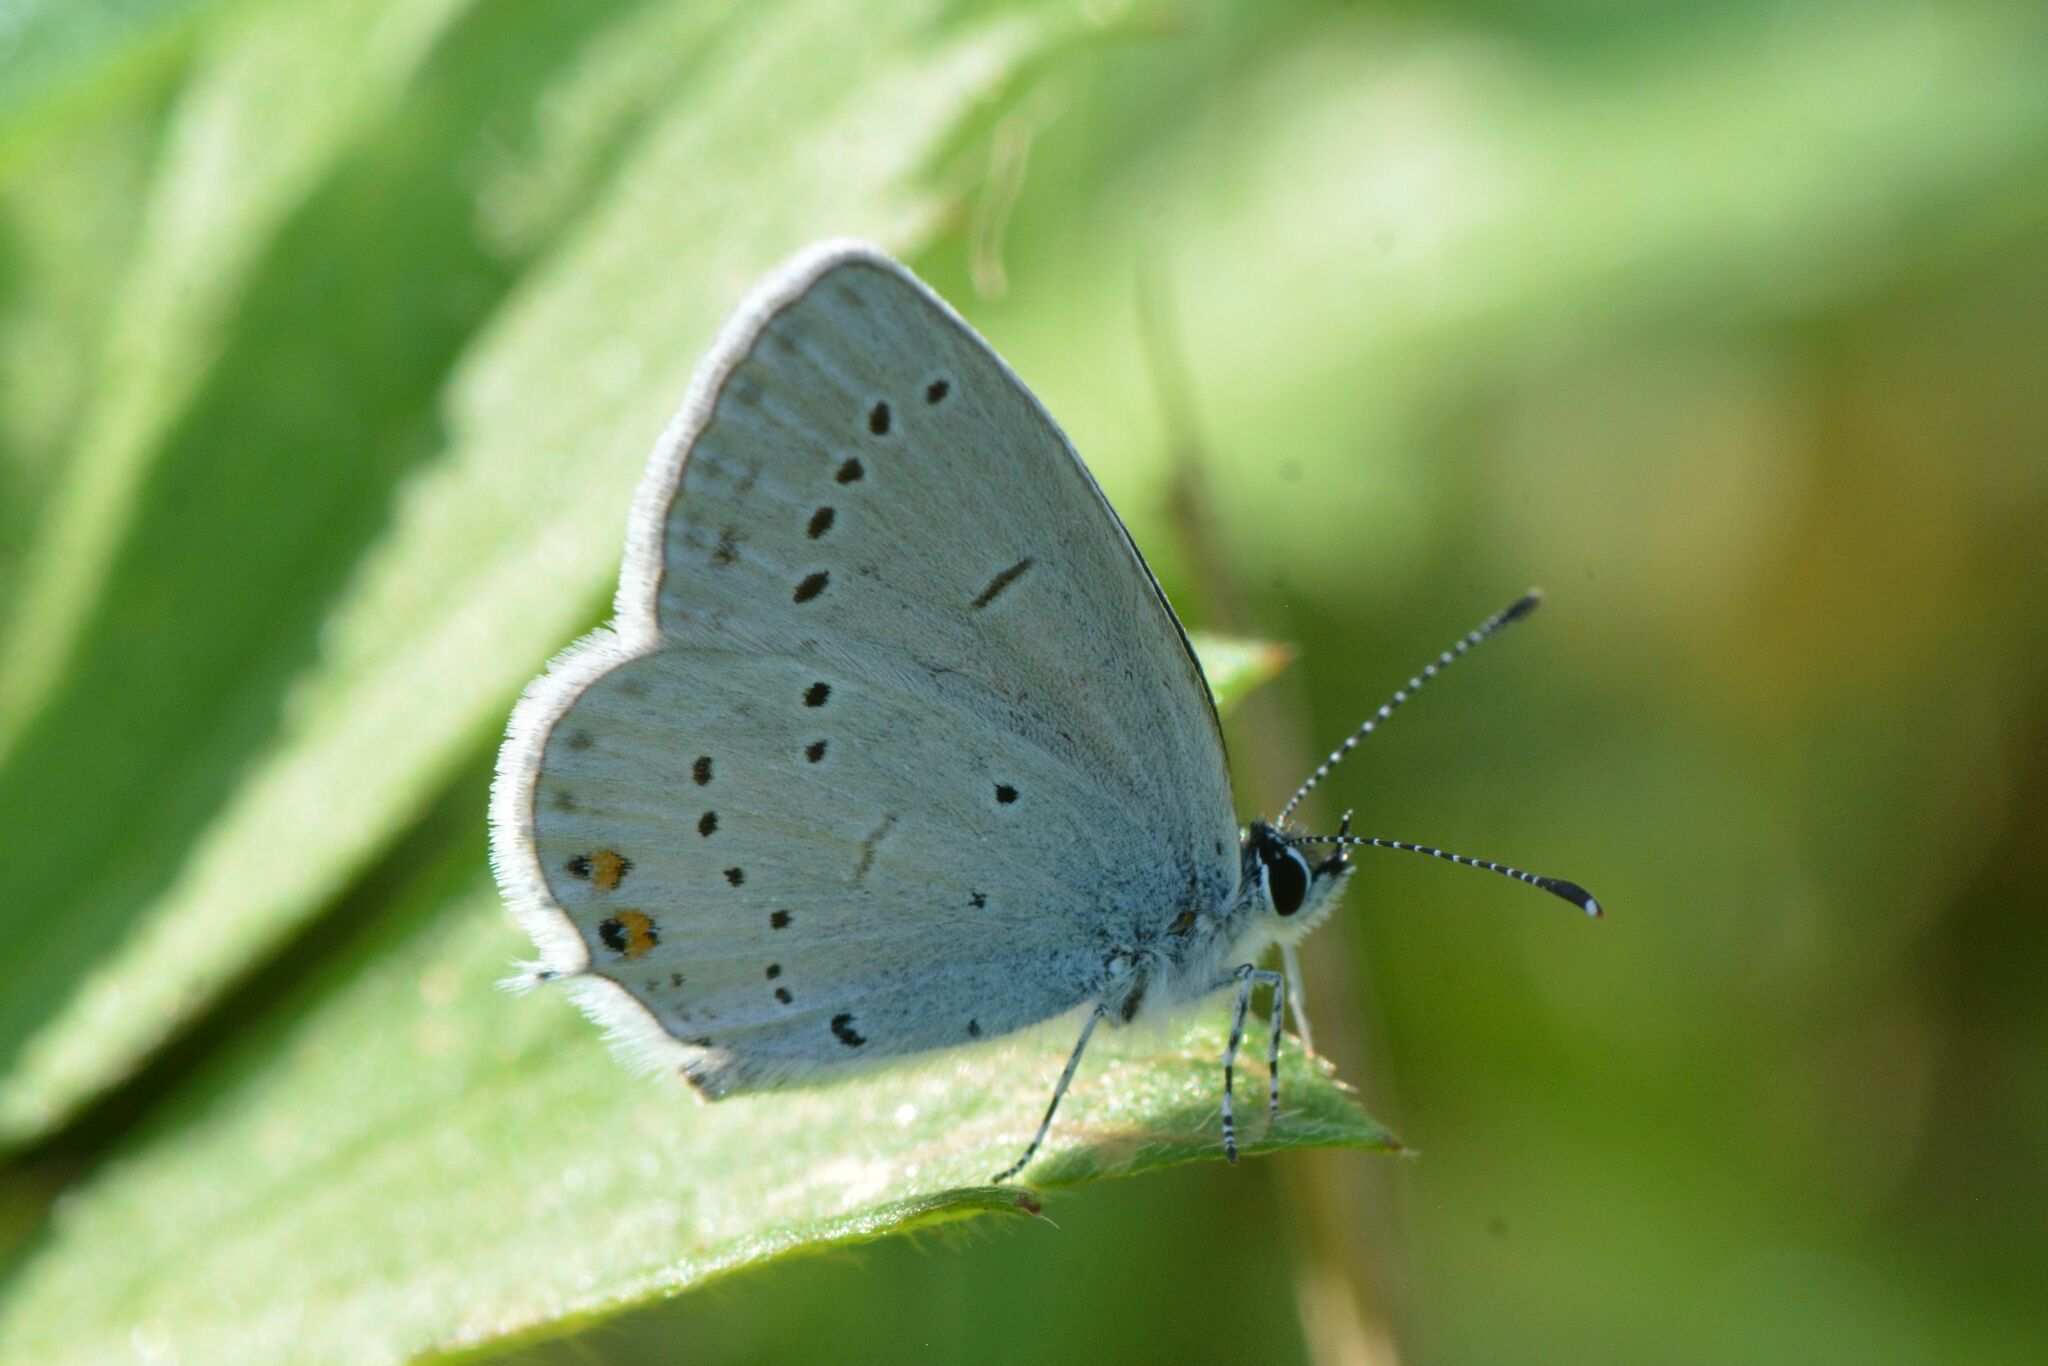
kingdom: Animalia
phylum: Arthropoda
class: Insecta
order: Lepidoptera
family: Lycaenidae
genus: Elkalyce
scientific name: Elkalyce argiades
